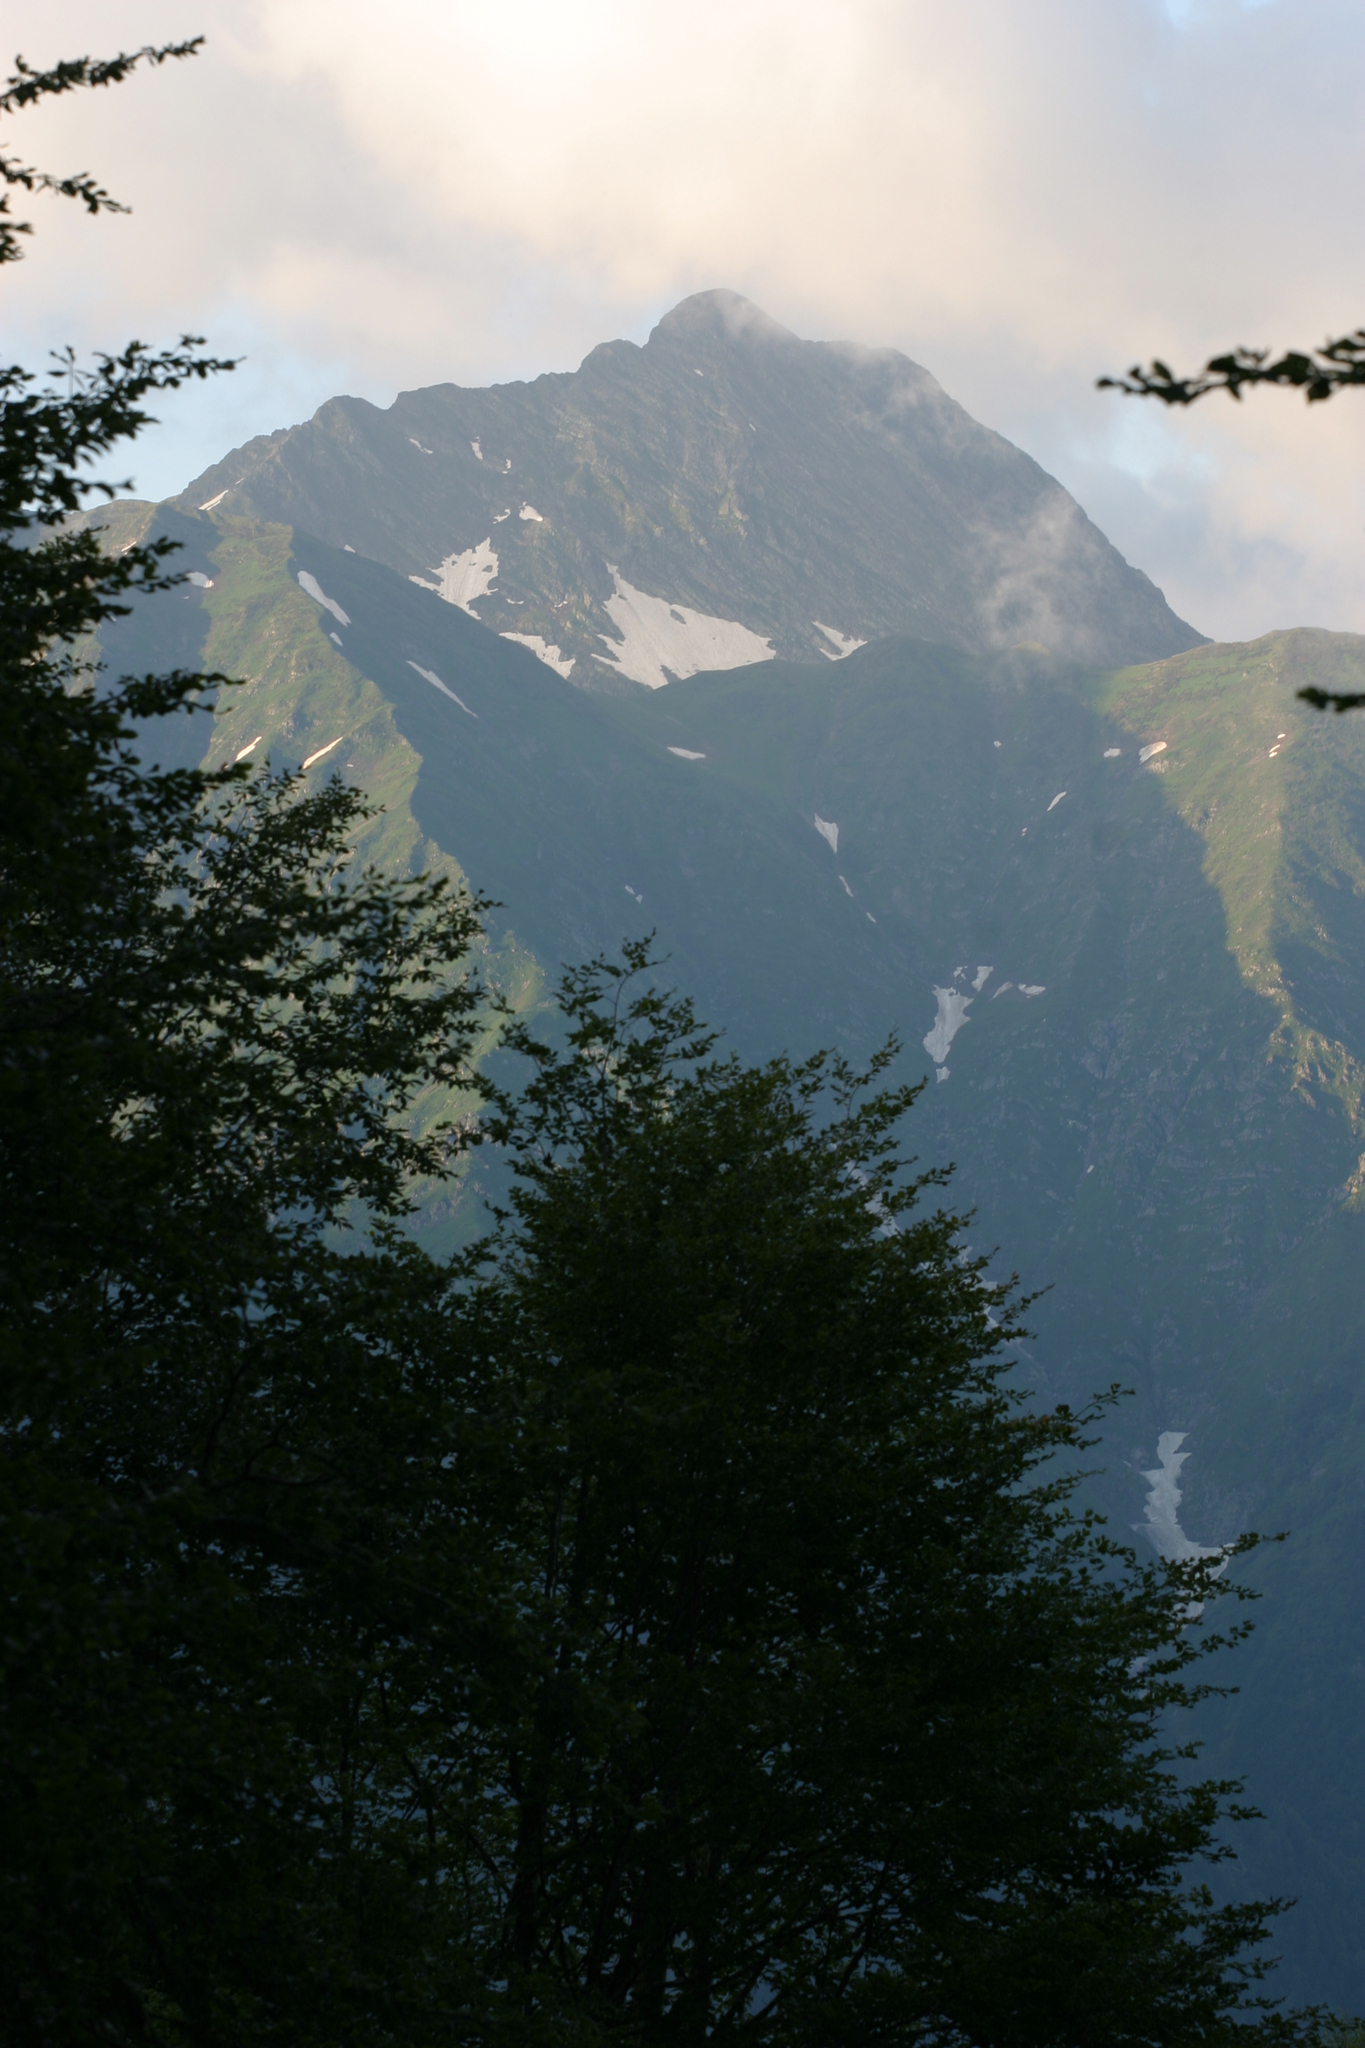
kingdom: Plantae
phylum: Tracheophyta
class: Magnoliopsida
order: Fagales
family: Fagaceae
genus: Fagus
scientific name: Fagus orientalis
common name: Oriental beech
